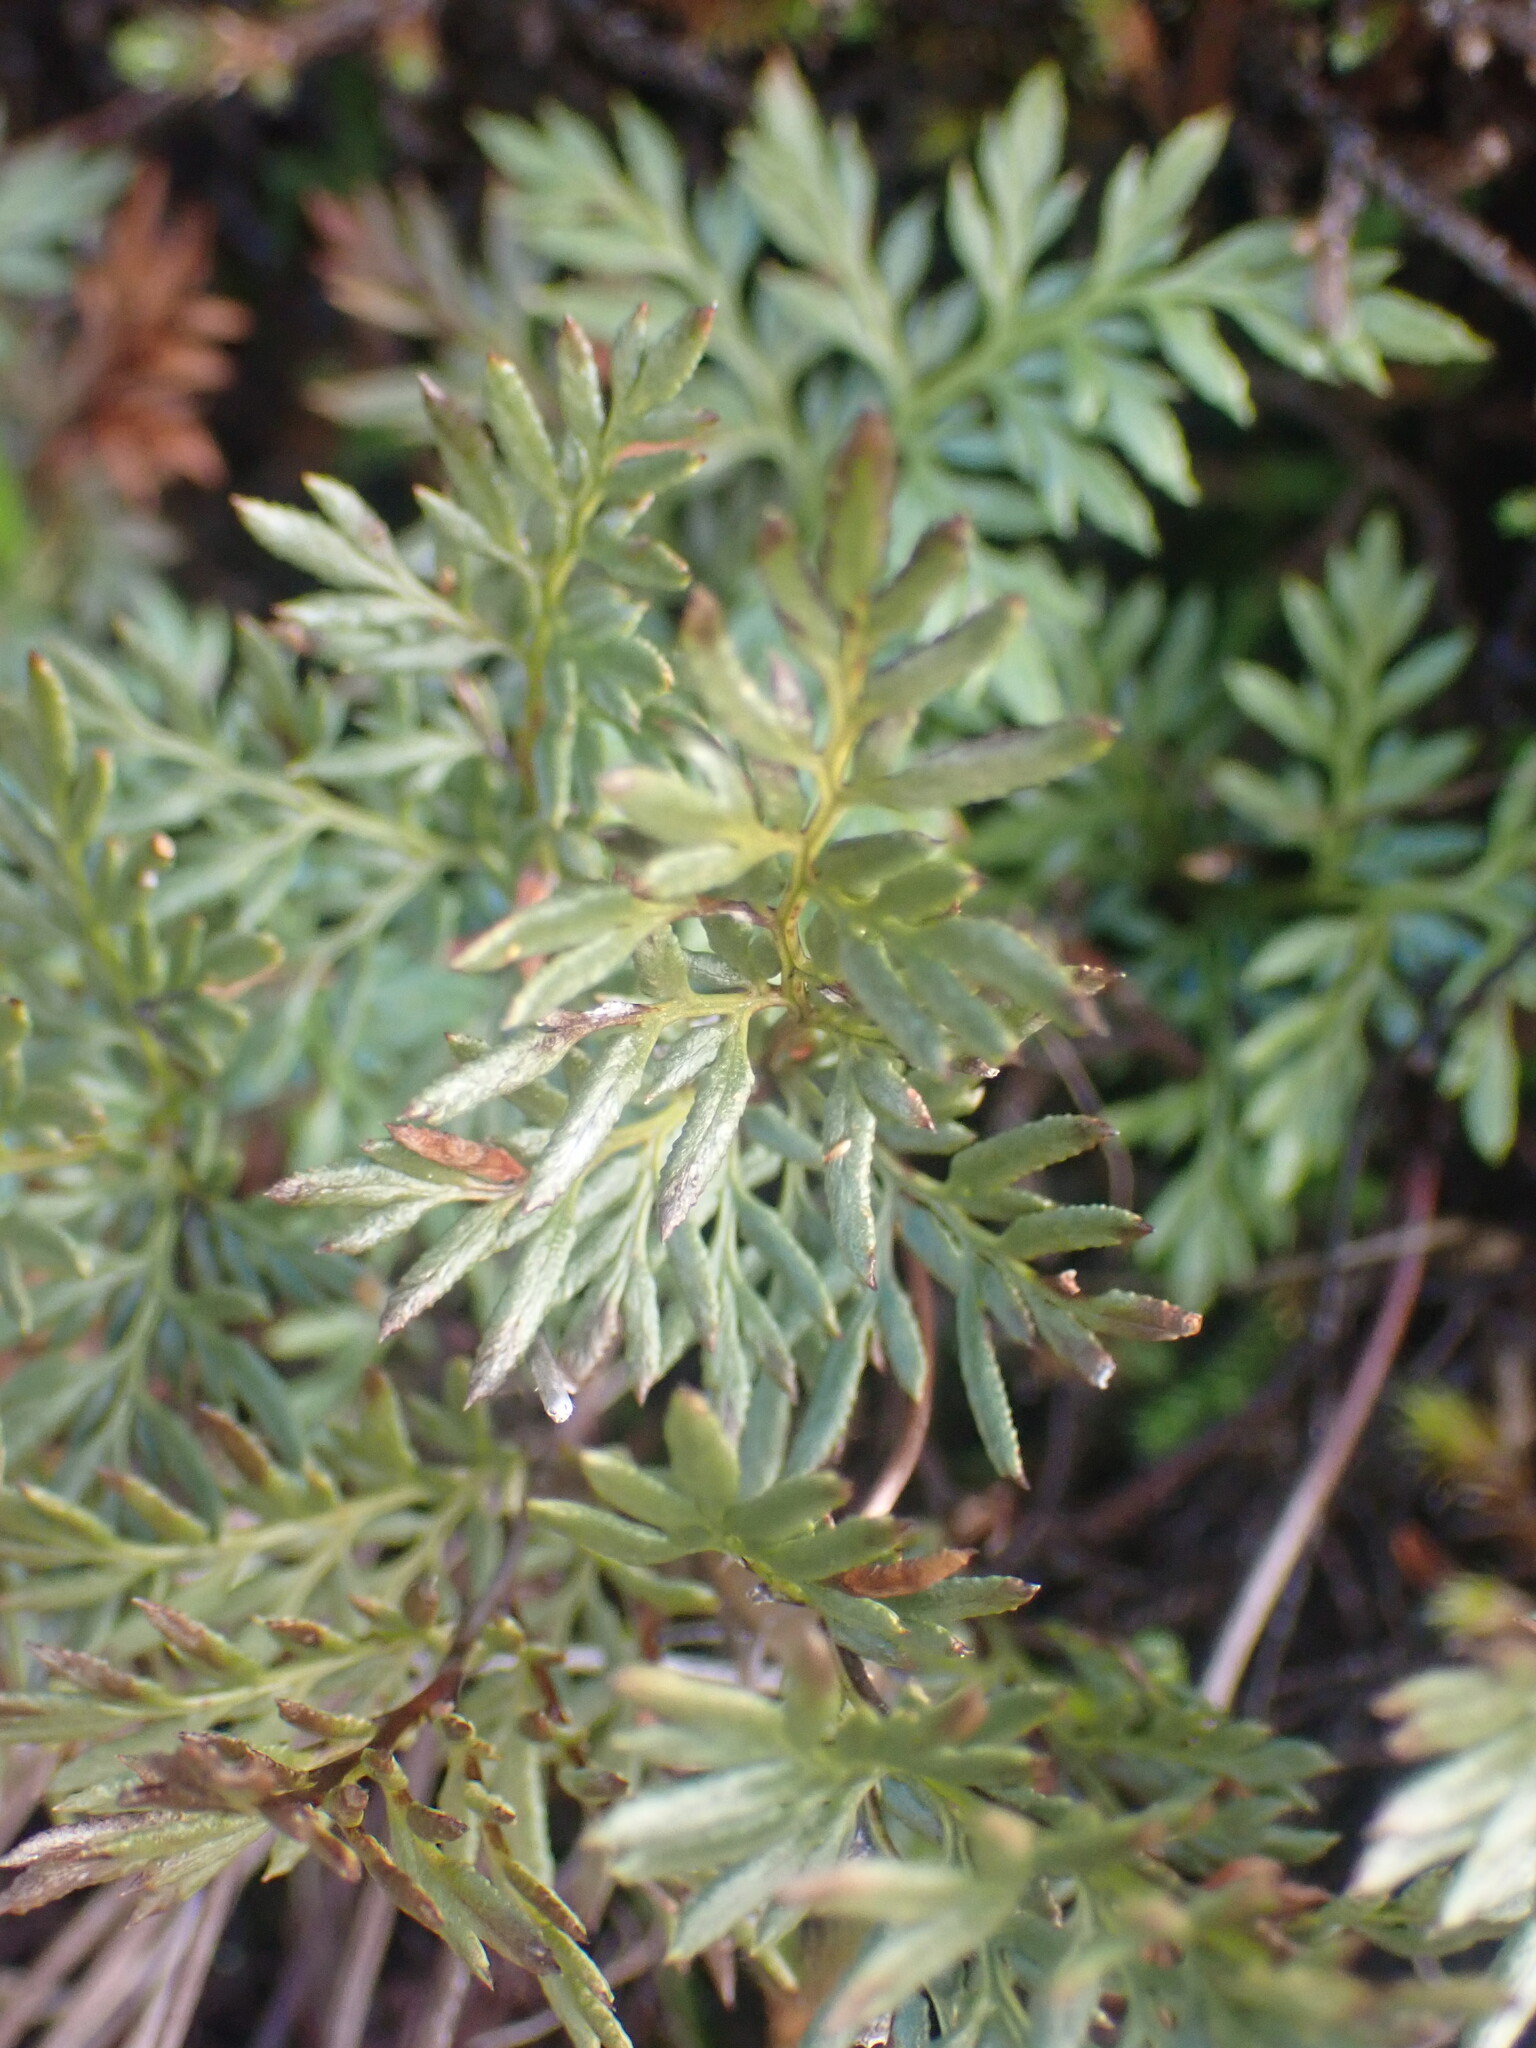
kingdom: Plantae
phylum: Tracheophyta
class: Polypodiopsida
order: Polypodiales
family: Pteridaceae
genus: Aspidotis
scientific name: Aspidotis densa
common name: Indian's dream
